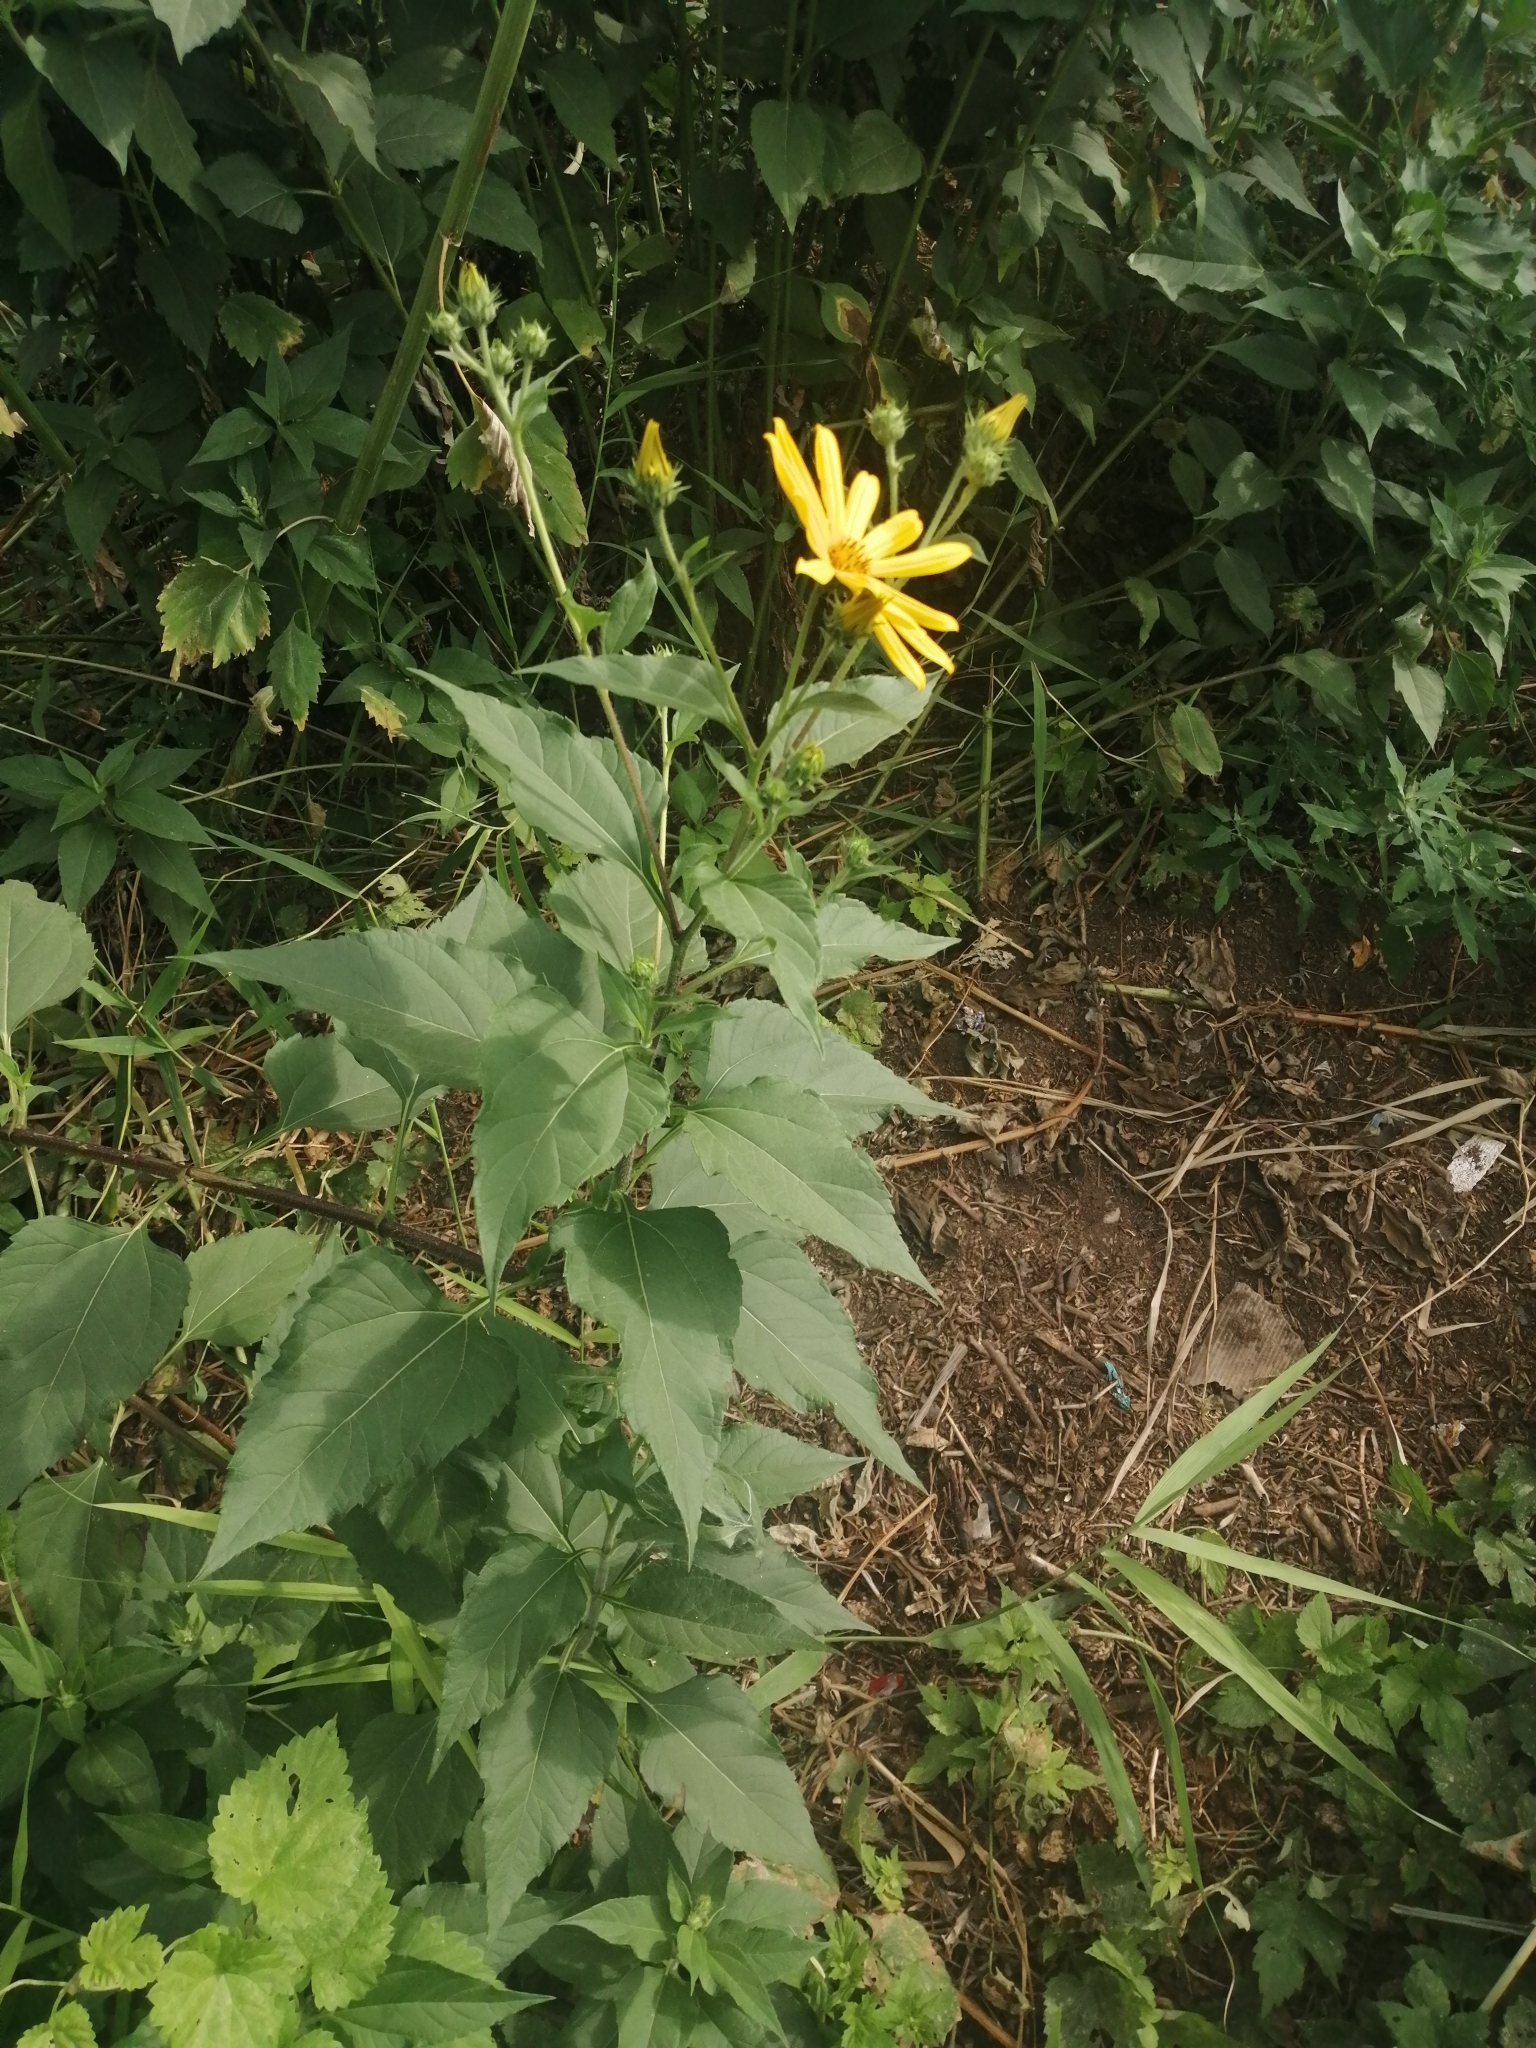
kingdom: Plantae
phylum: Tracheophyta
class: Magnoliopsida
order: Asterales
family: Asteraceae
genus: Helianthus
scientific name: Helianthus tuberosus
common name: Jerusalem artichoke
